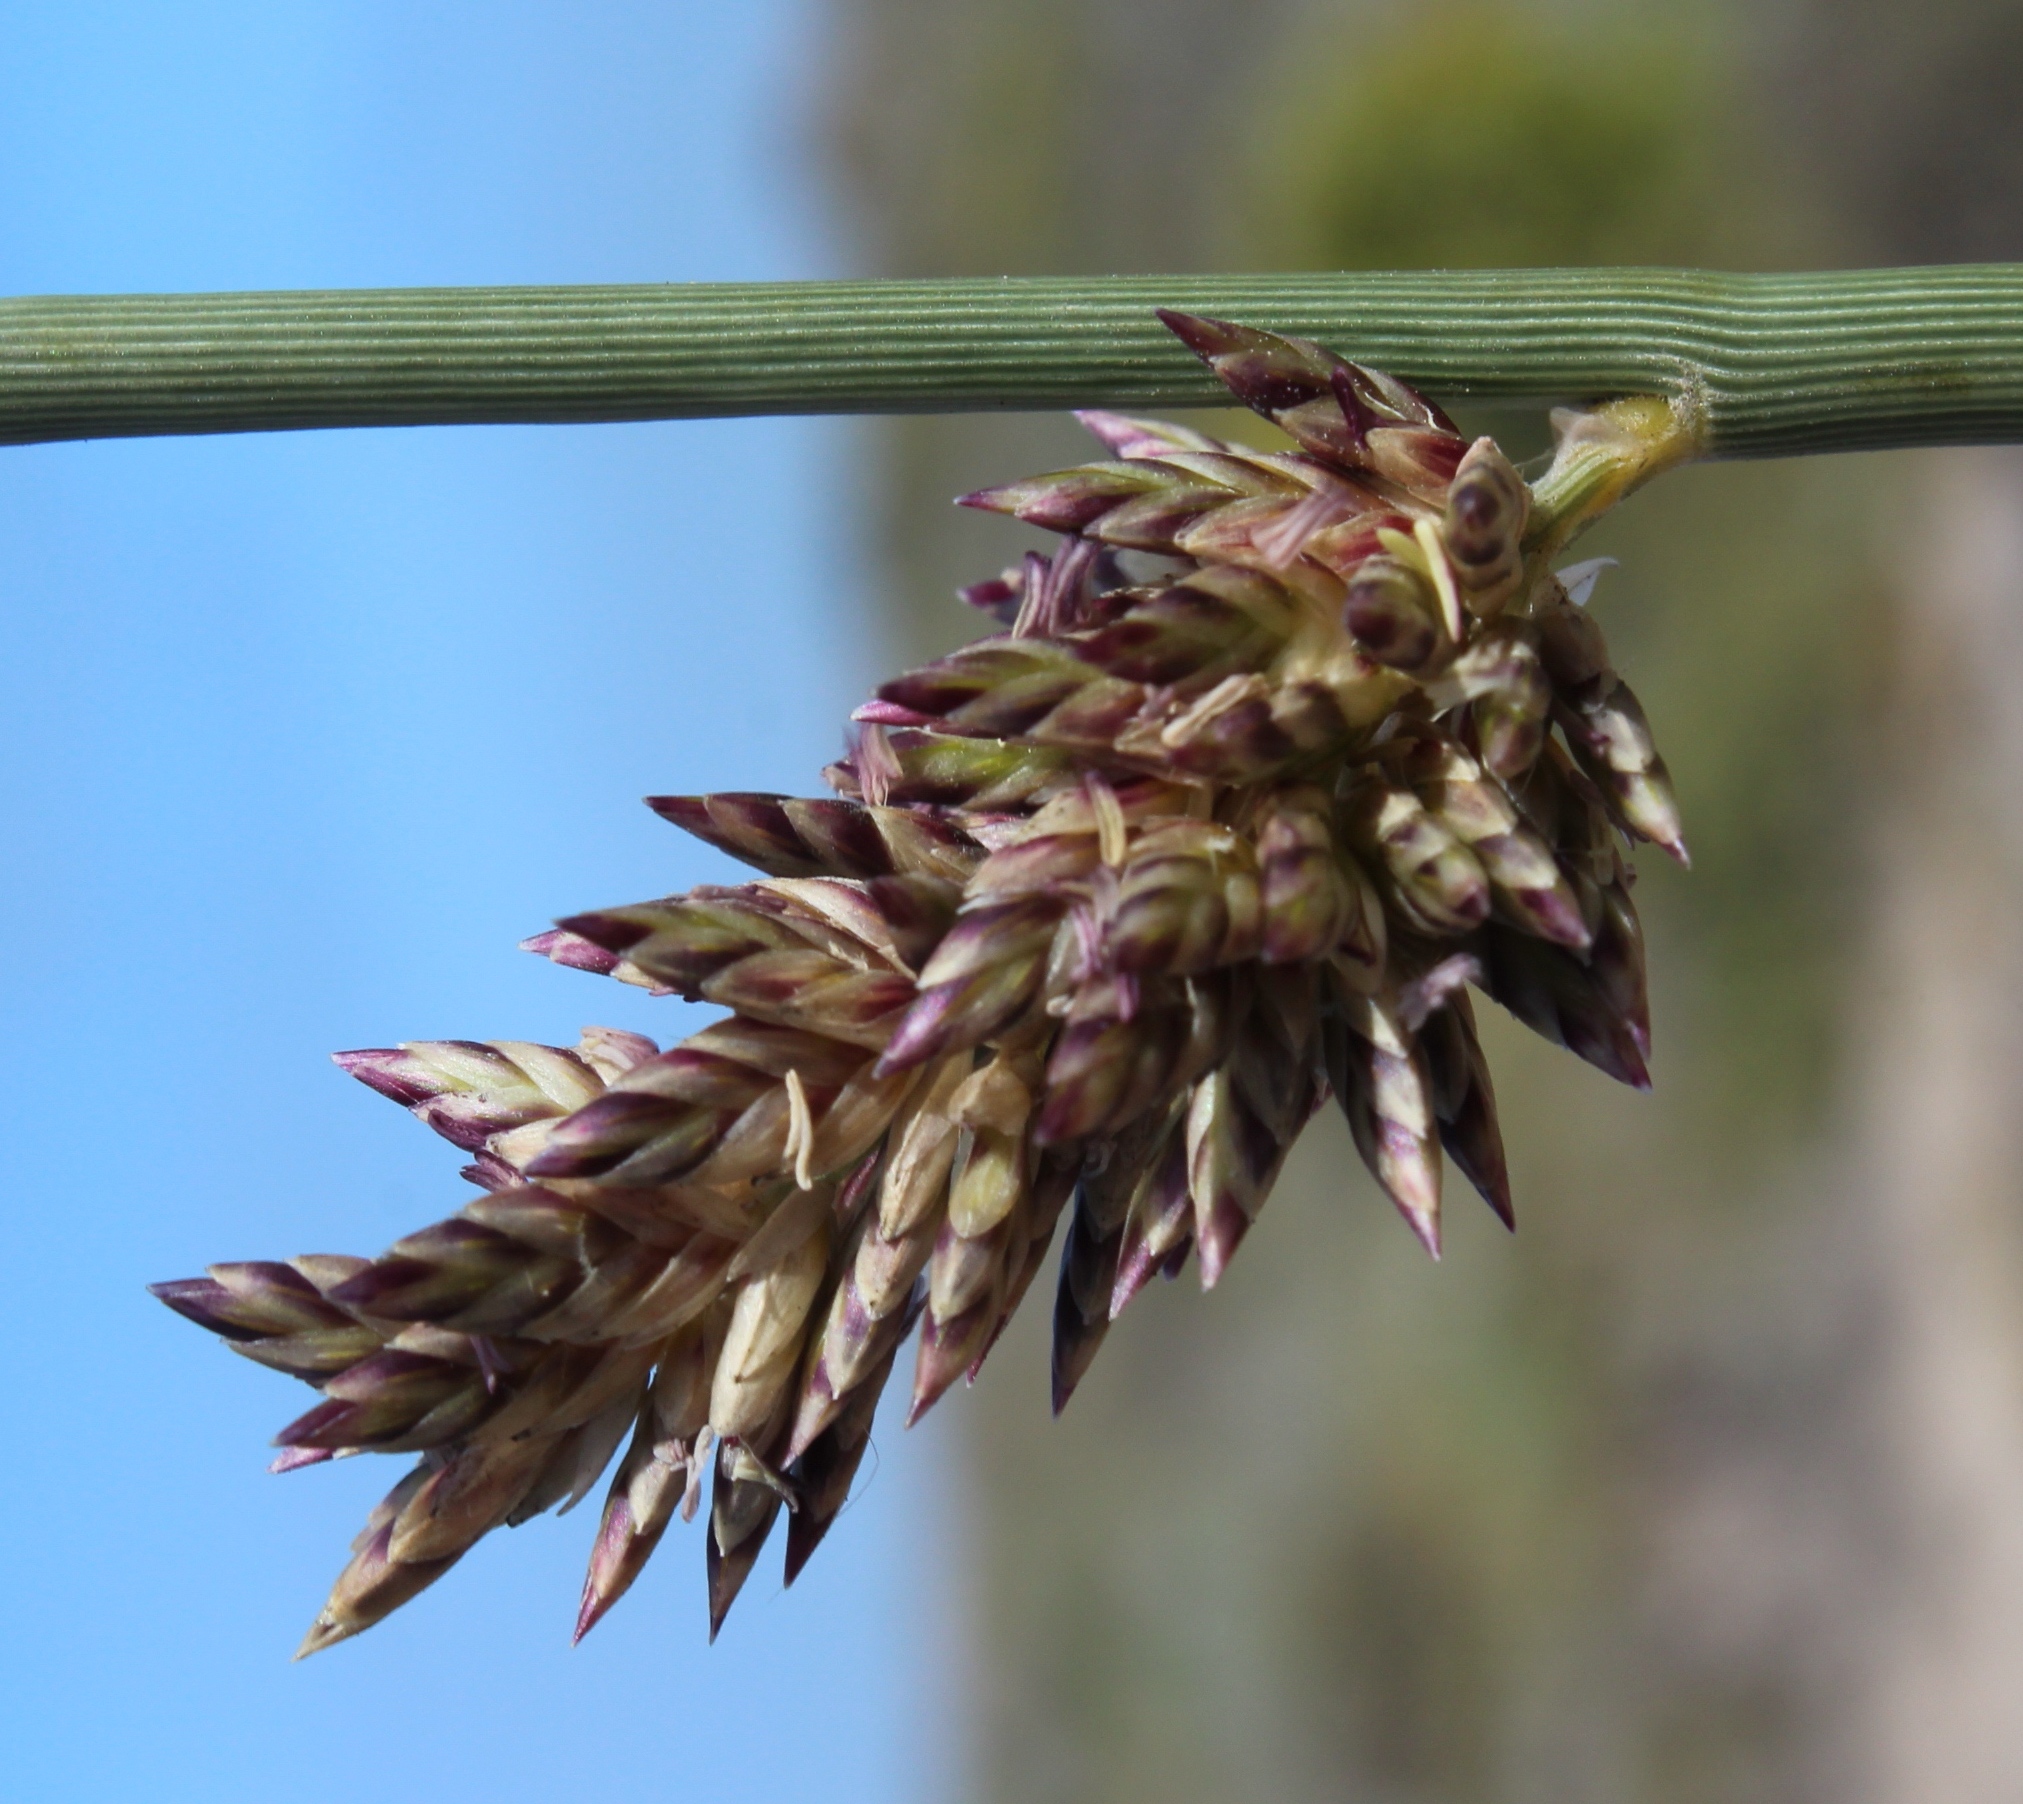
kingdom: Plantae
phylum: Tracheophyta
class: Liliopsida
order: Poales
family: Poaceae
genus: Cladoraphis
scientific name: Cladoraphis cyperoides
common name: Bristly lovegrass
